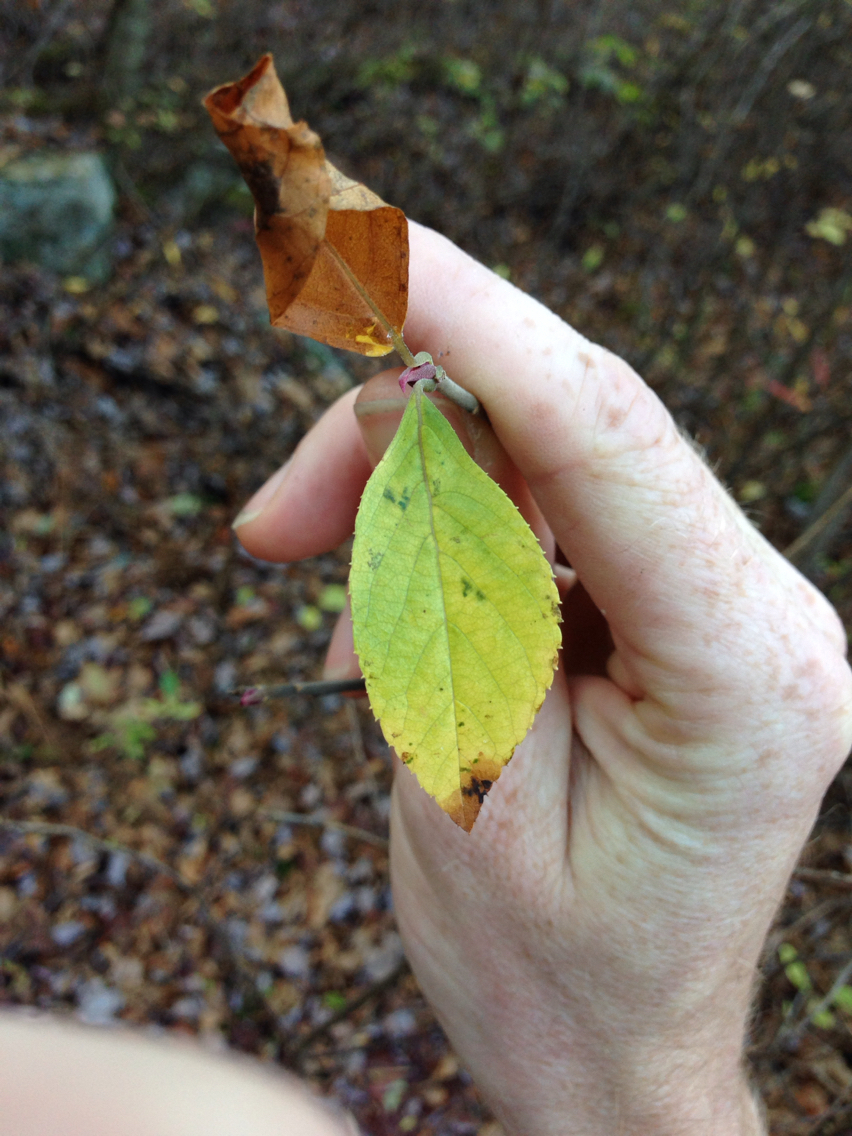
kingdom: Plantae
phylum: Tracheophyta
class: Magnoliopsida
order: Ericales
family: Clethraceae
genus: Clethra
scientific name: Clethra alnifolia
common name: Sweet pepperbush
